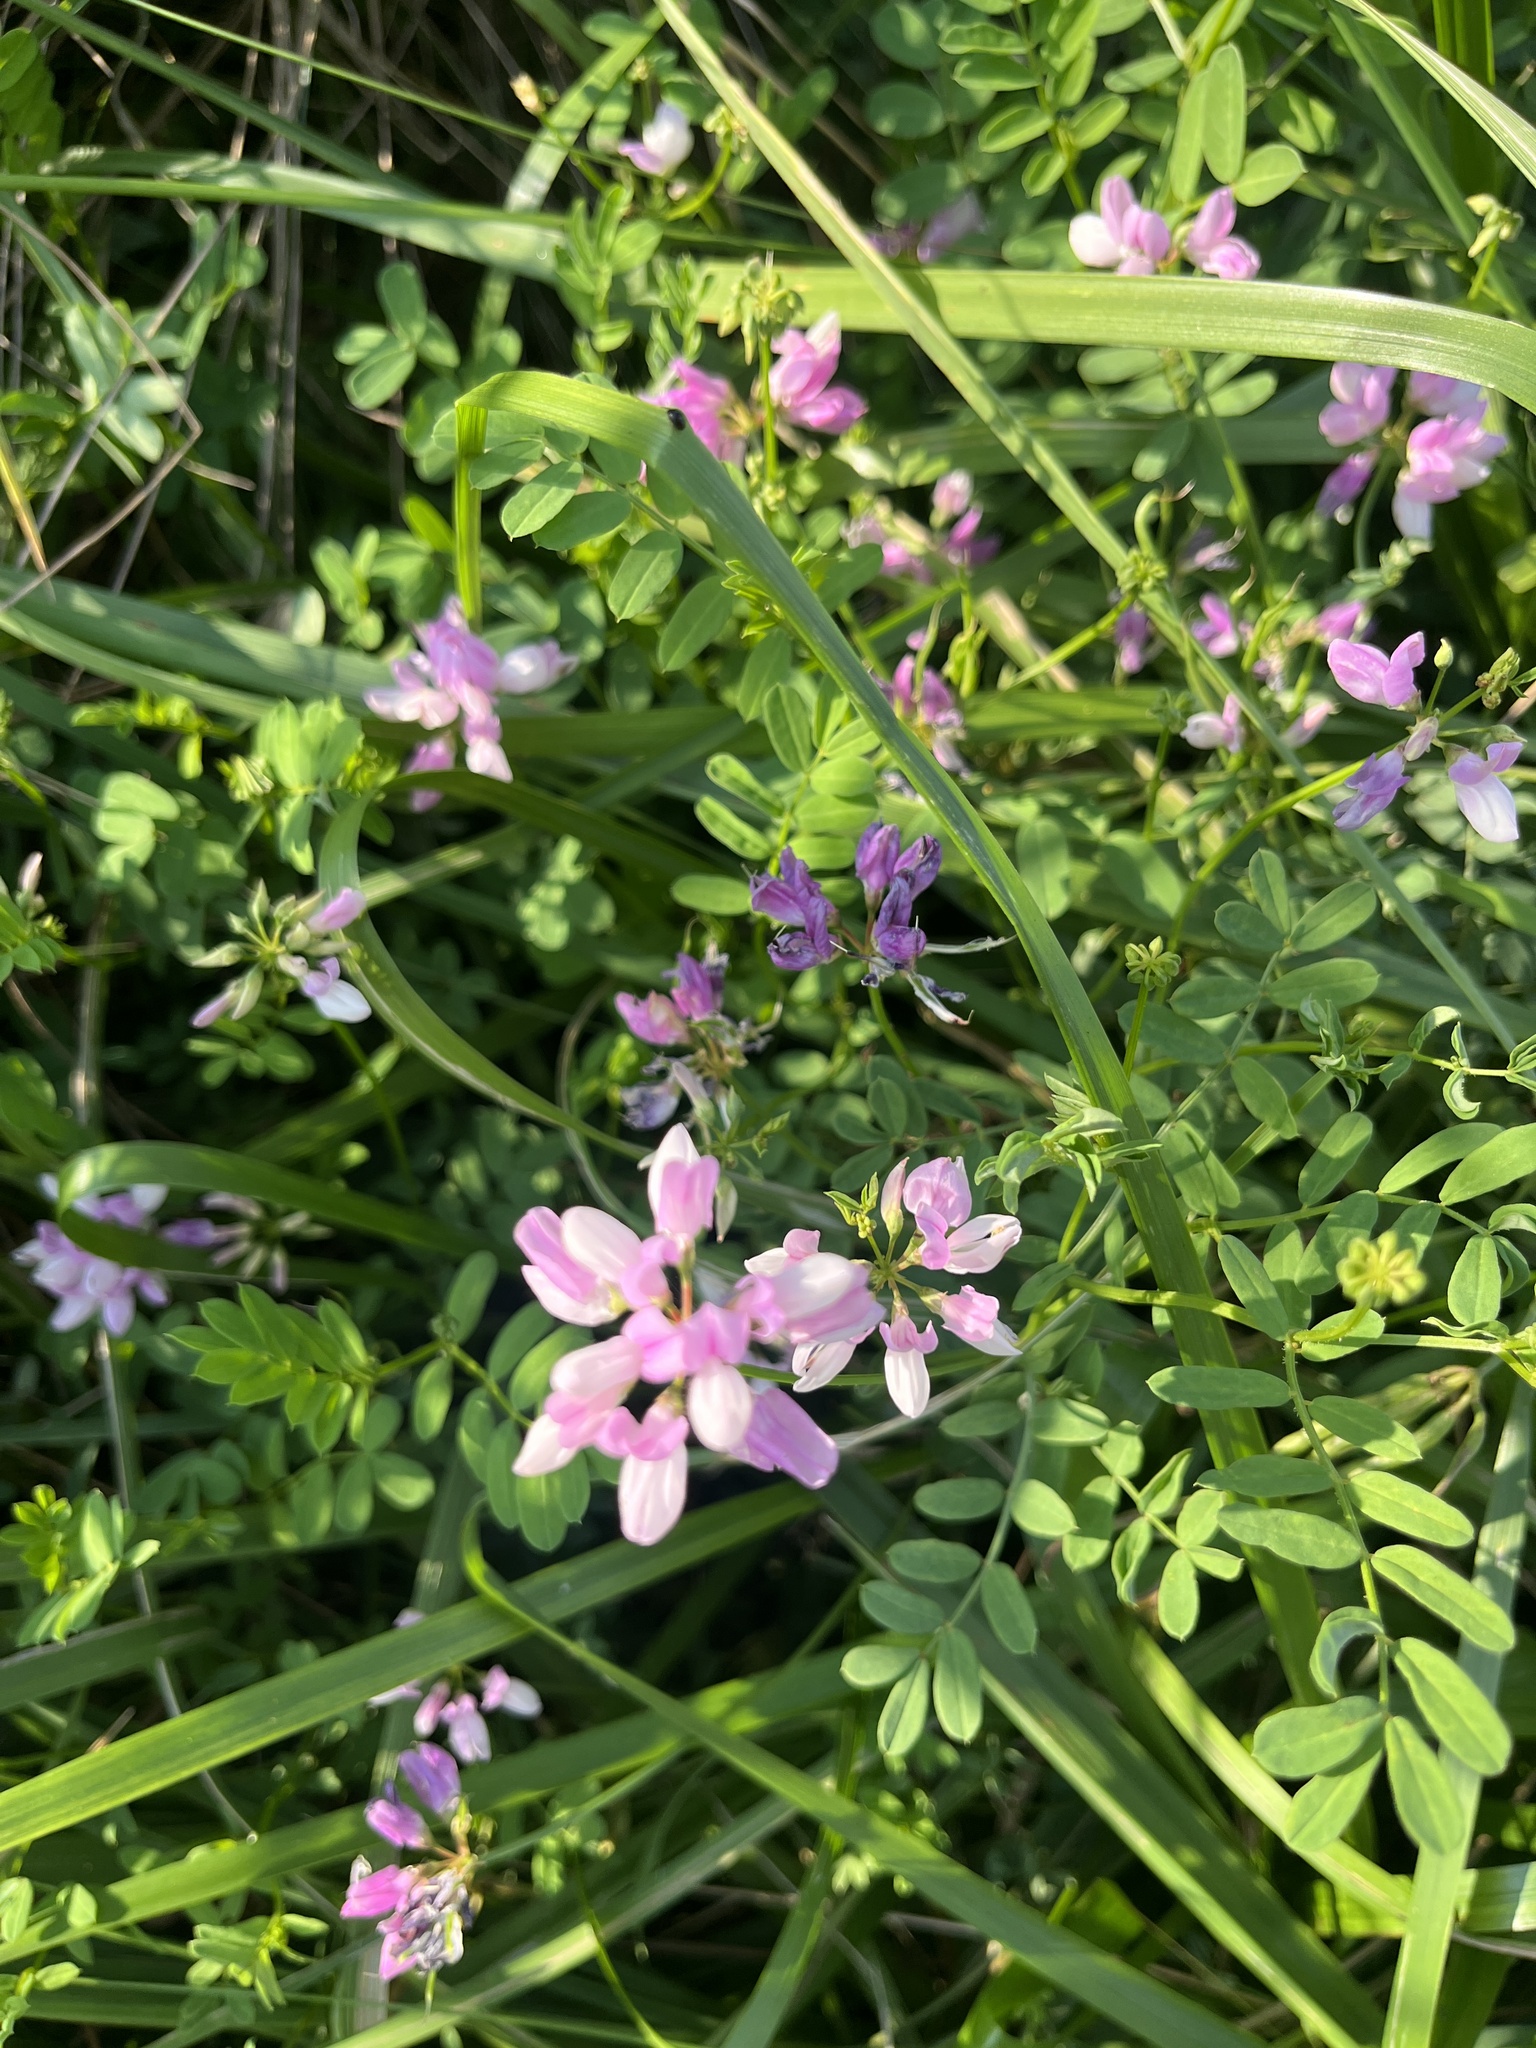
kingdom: Plantae
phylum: Tracheophyta
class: Magnoliopsida
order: Fabales
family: Fabaceae
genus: Coronilla
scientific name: Coronilla varia
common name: Crownvetch
